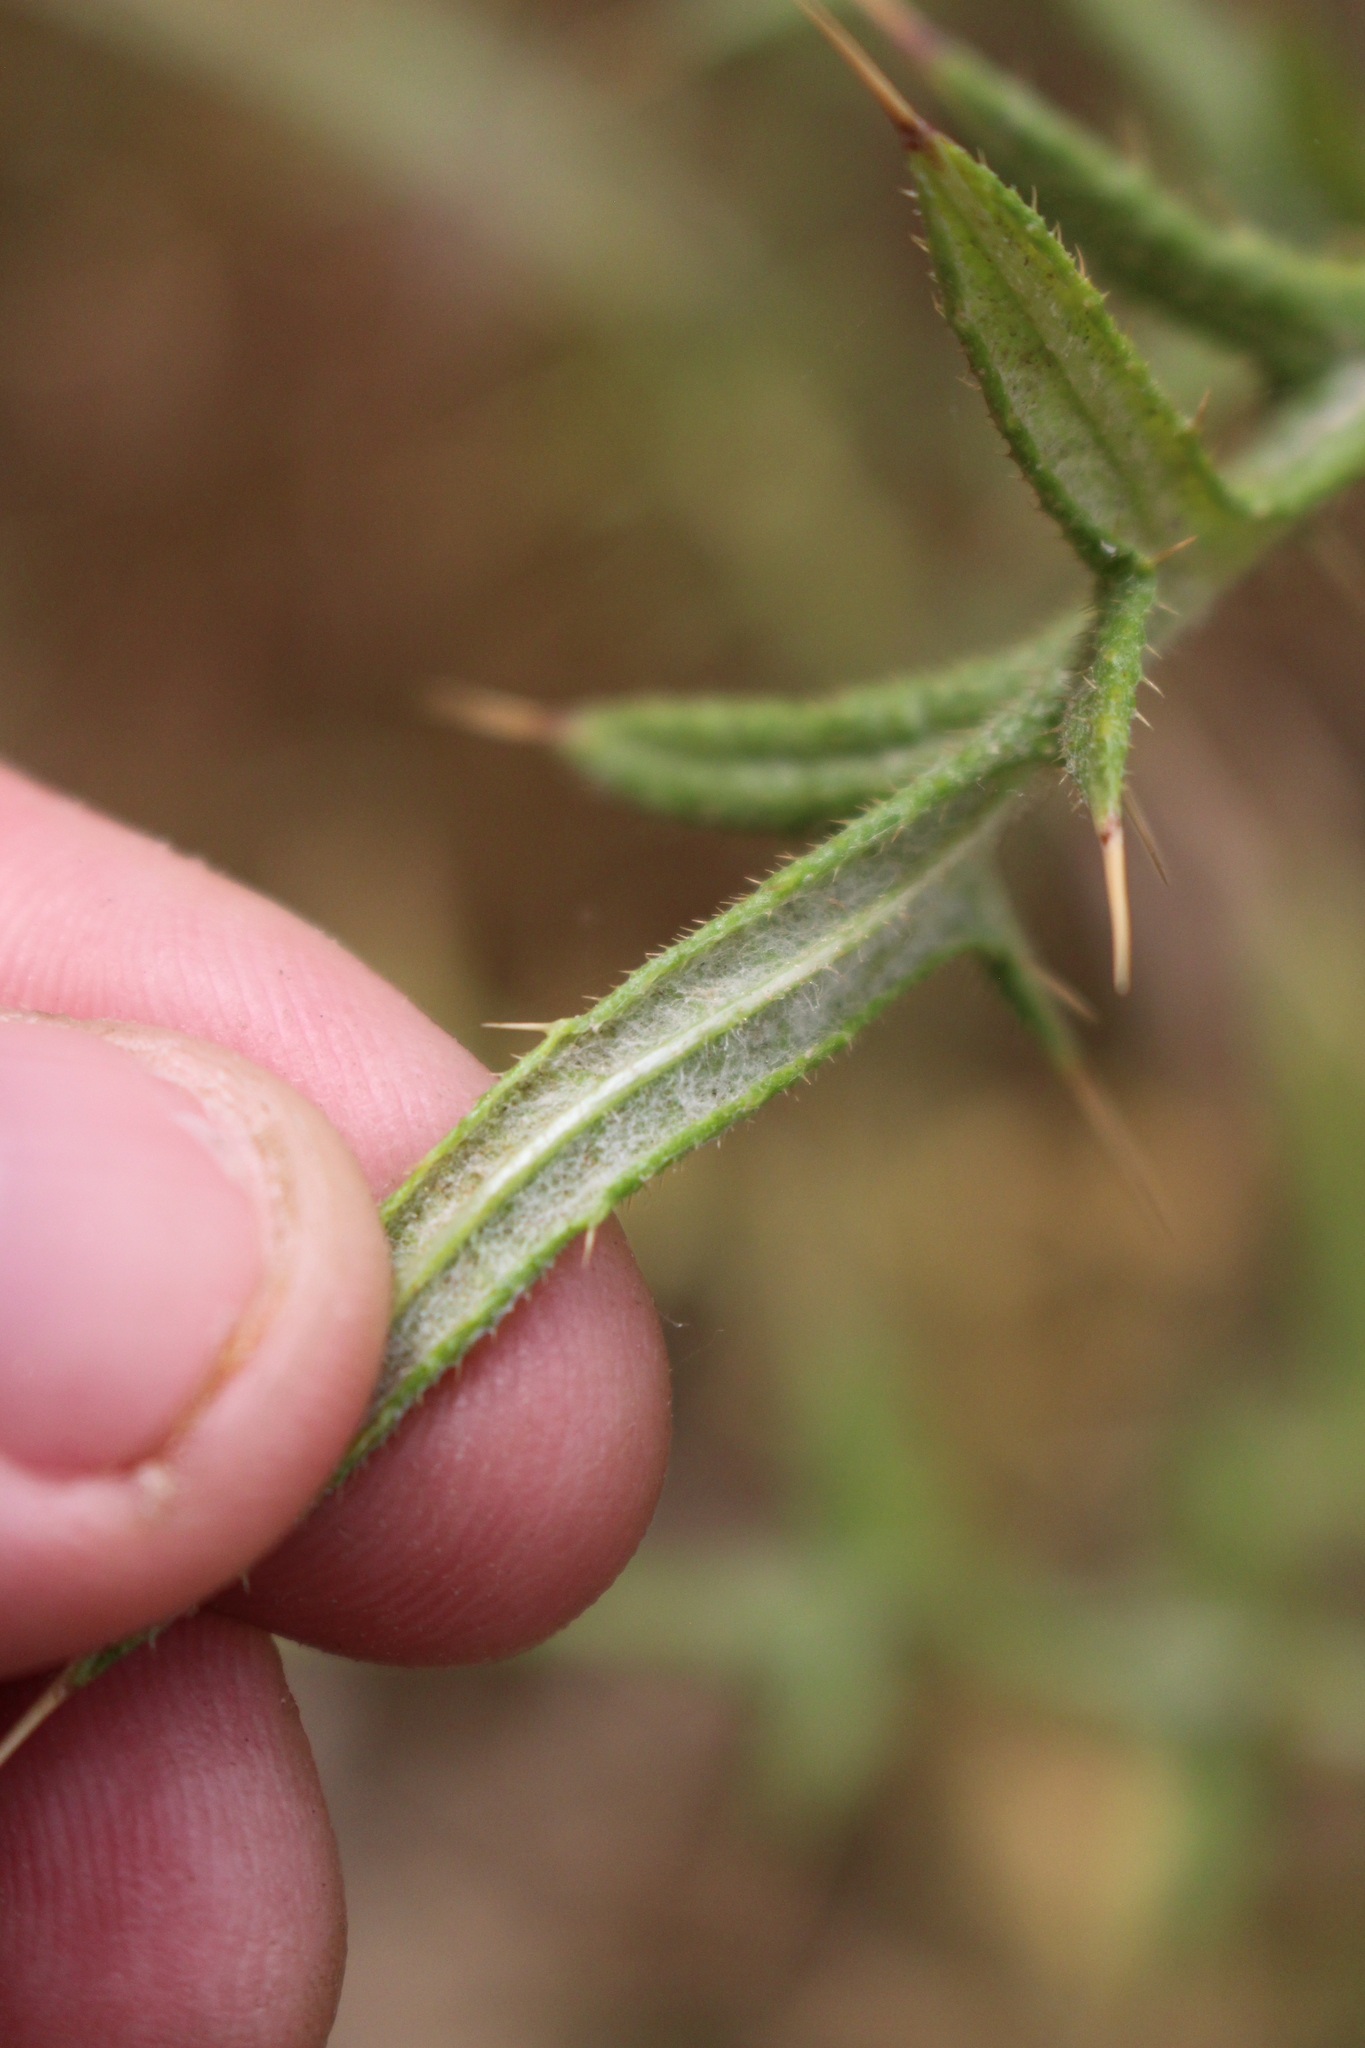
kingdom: Plantae
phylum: Tracheophyta
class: Magnoliopsida
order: Asterales
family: Asteraceae
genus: Cirsium
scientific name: Cirsium vulgare
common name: Bull thistle
